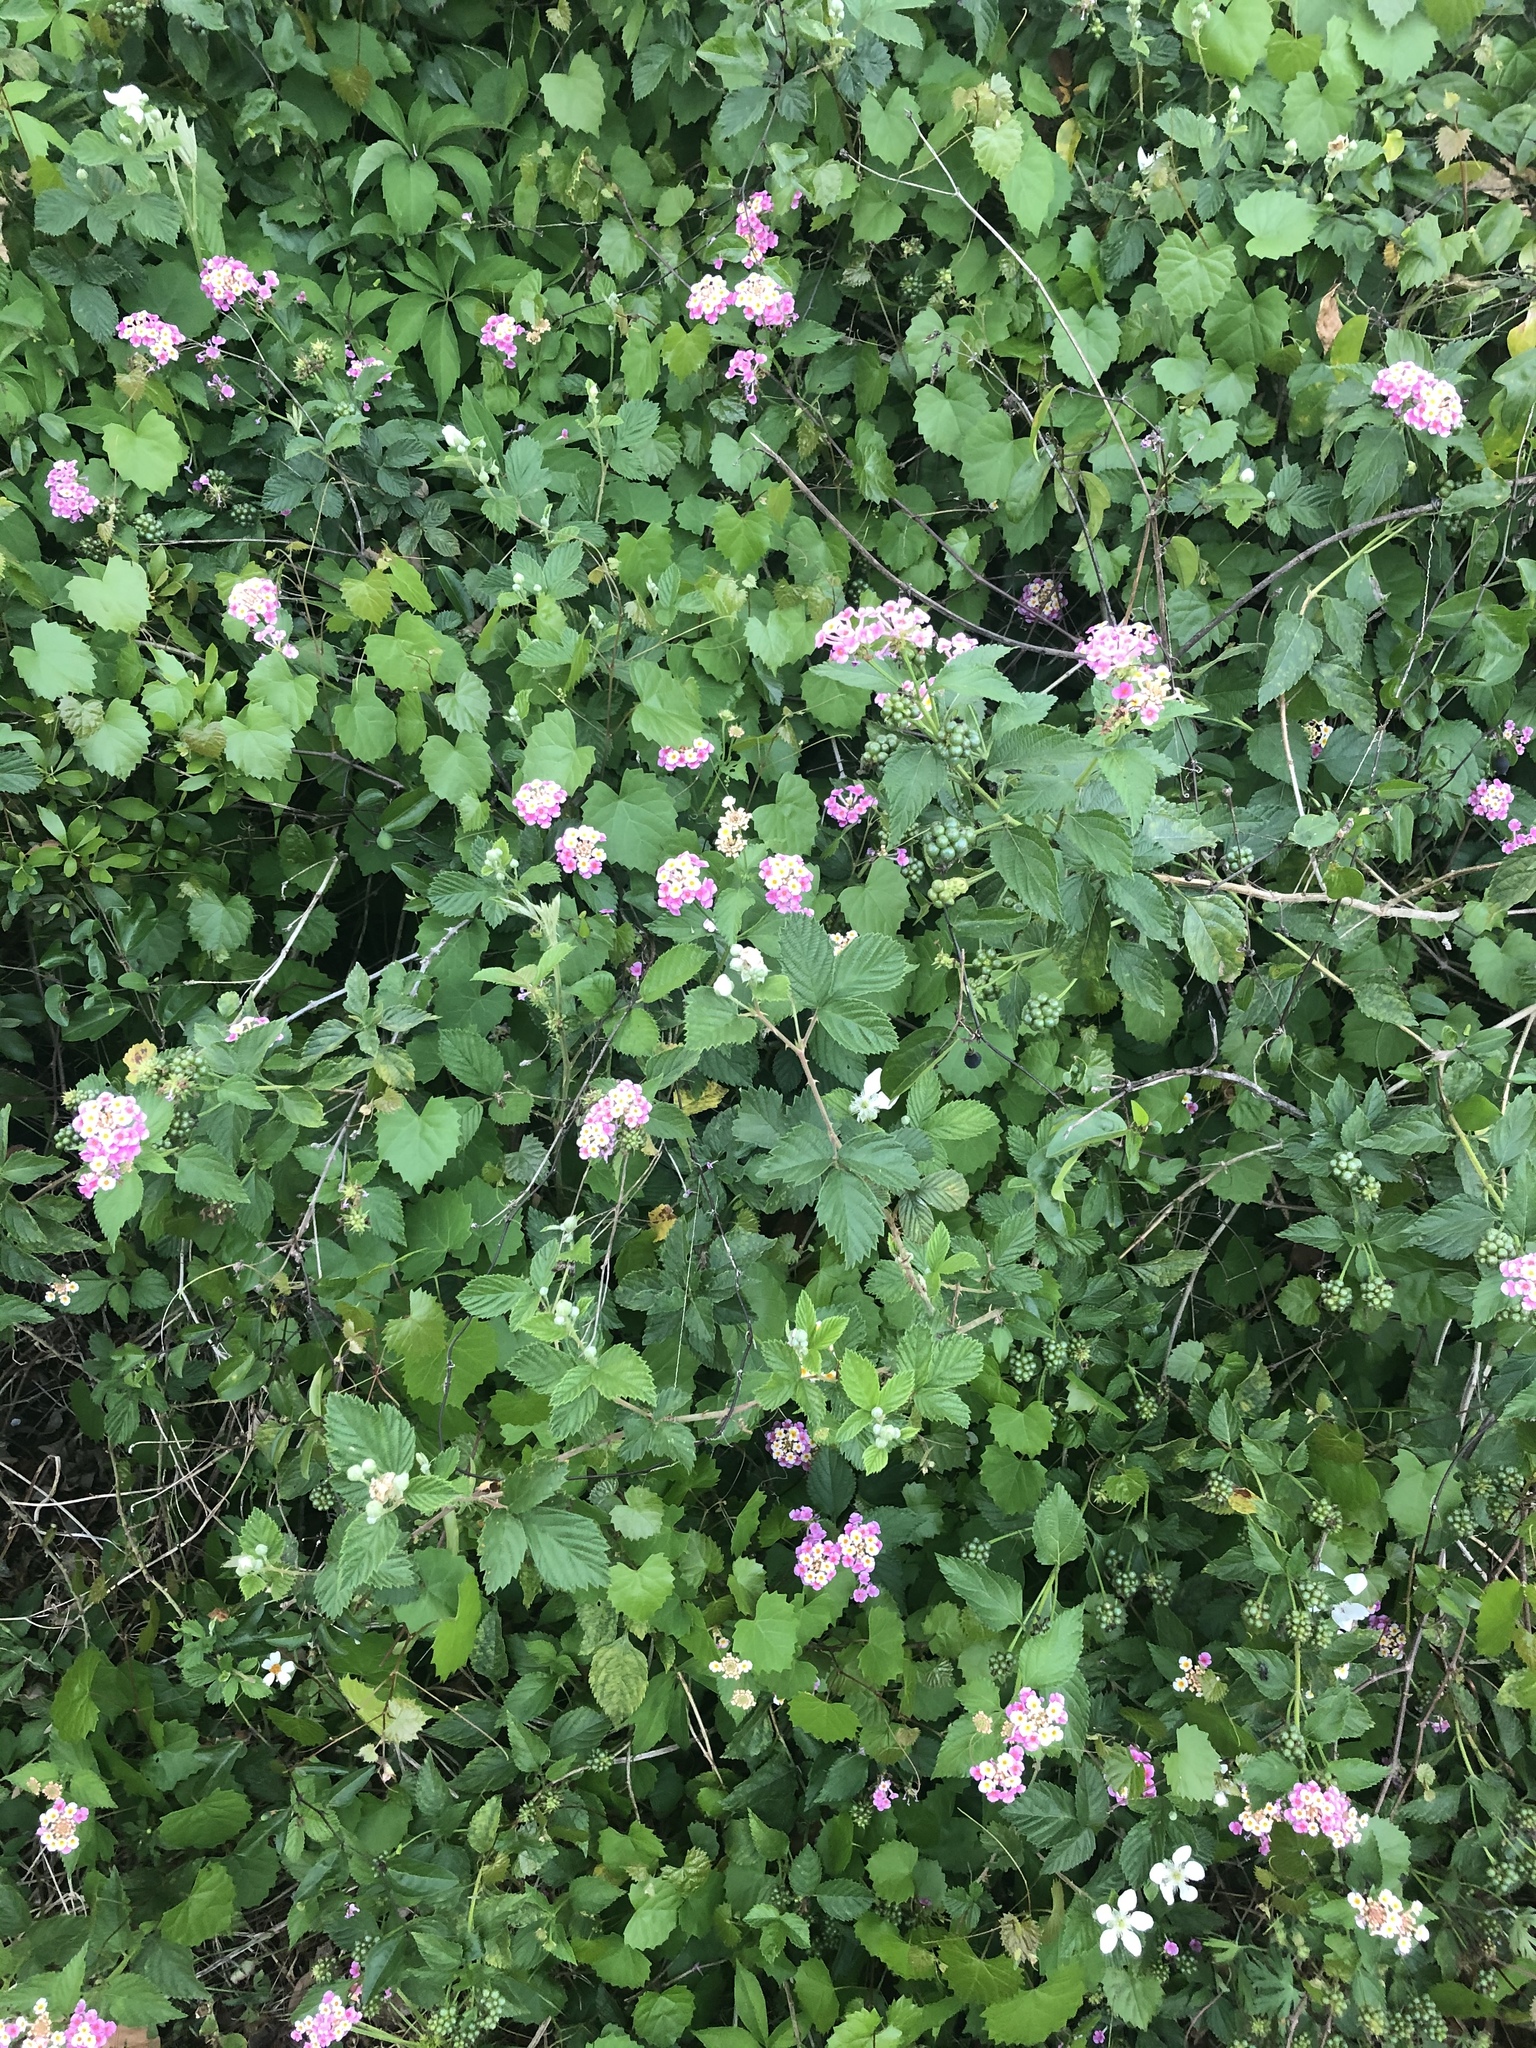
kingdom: Plantae
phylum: Tracheophyta
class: Magnoliopsida
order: Lamiales
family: Verbenaceae
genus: Lantana
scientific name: Lantana camara
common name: Lantana
